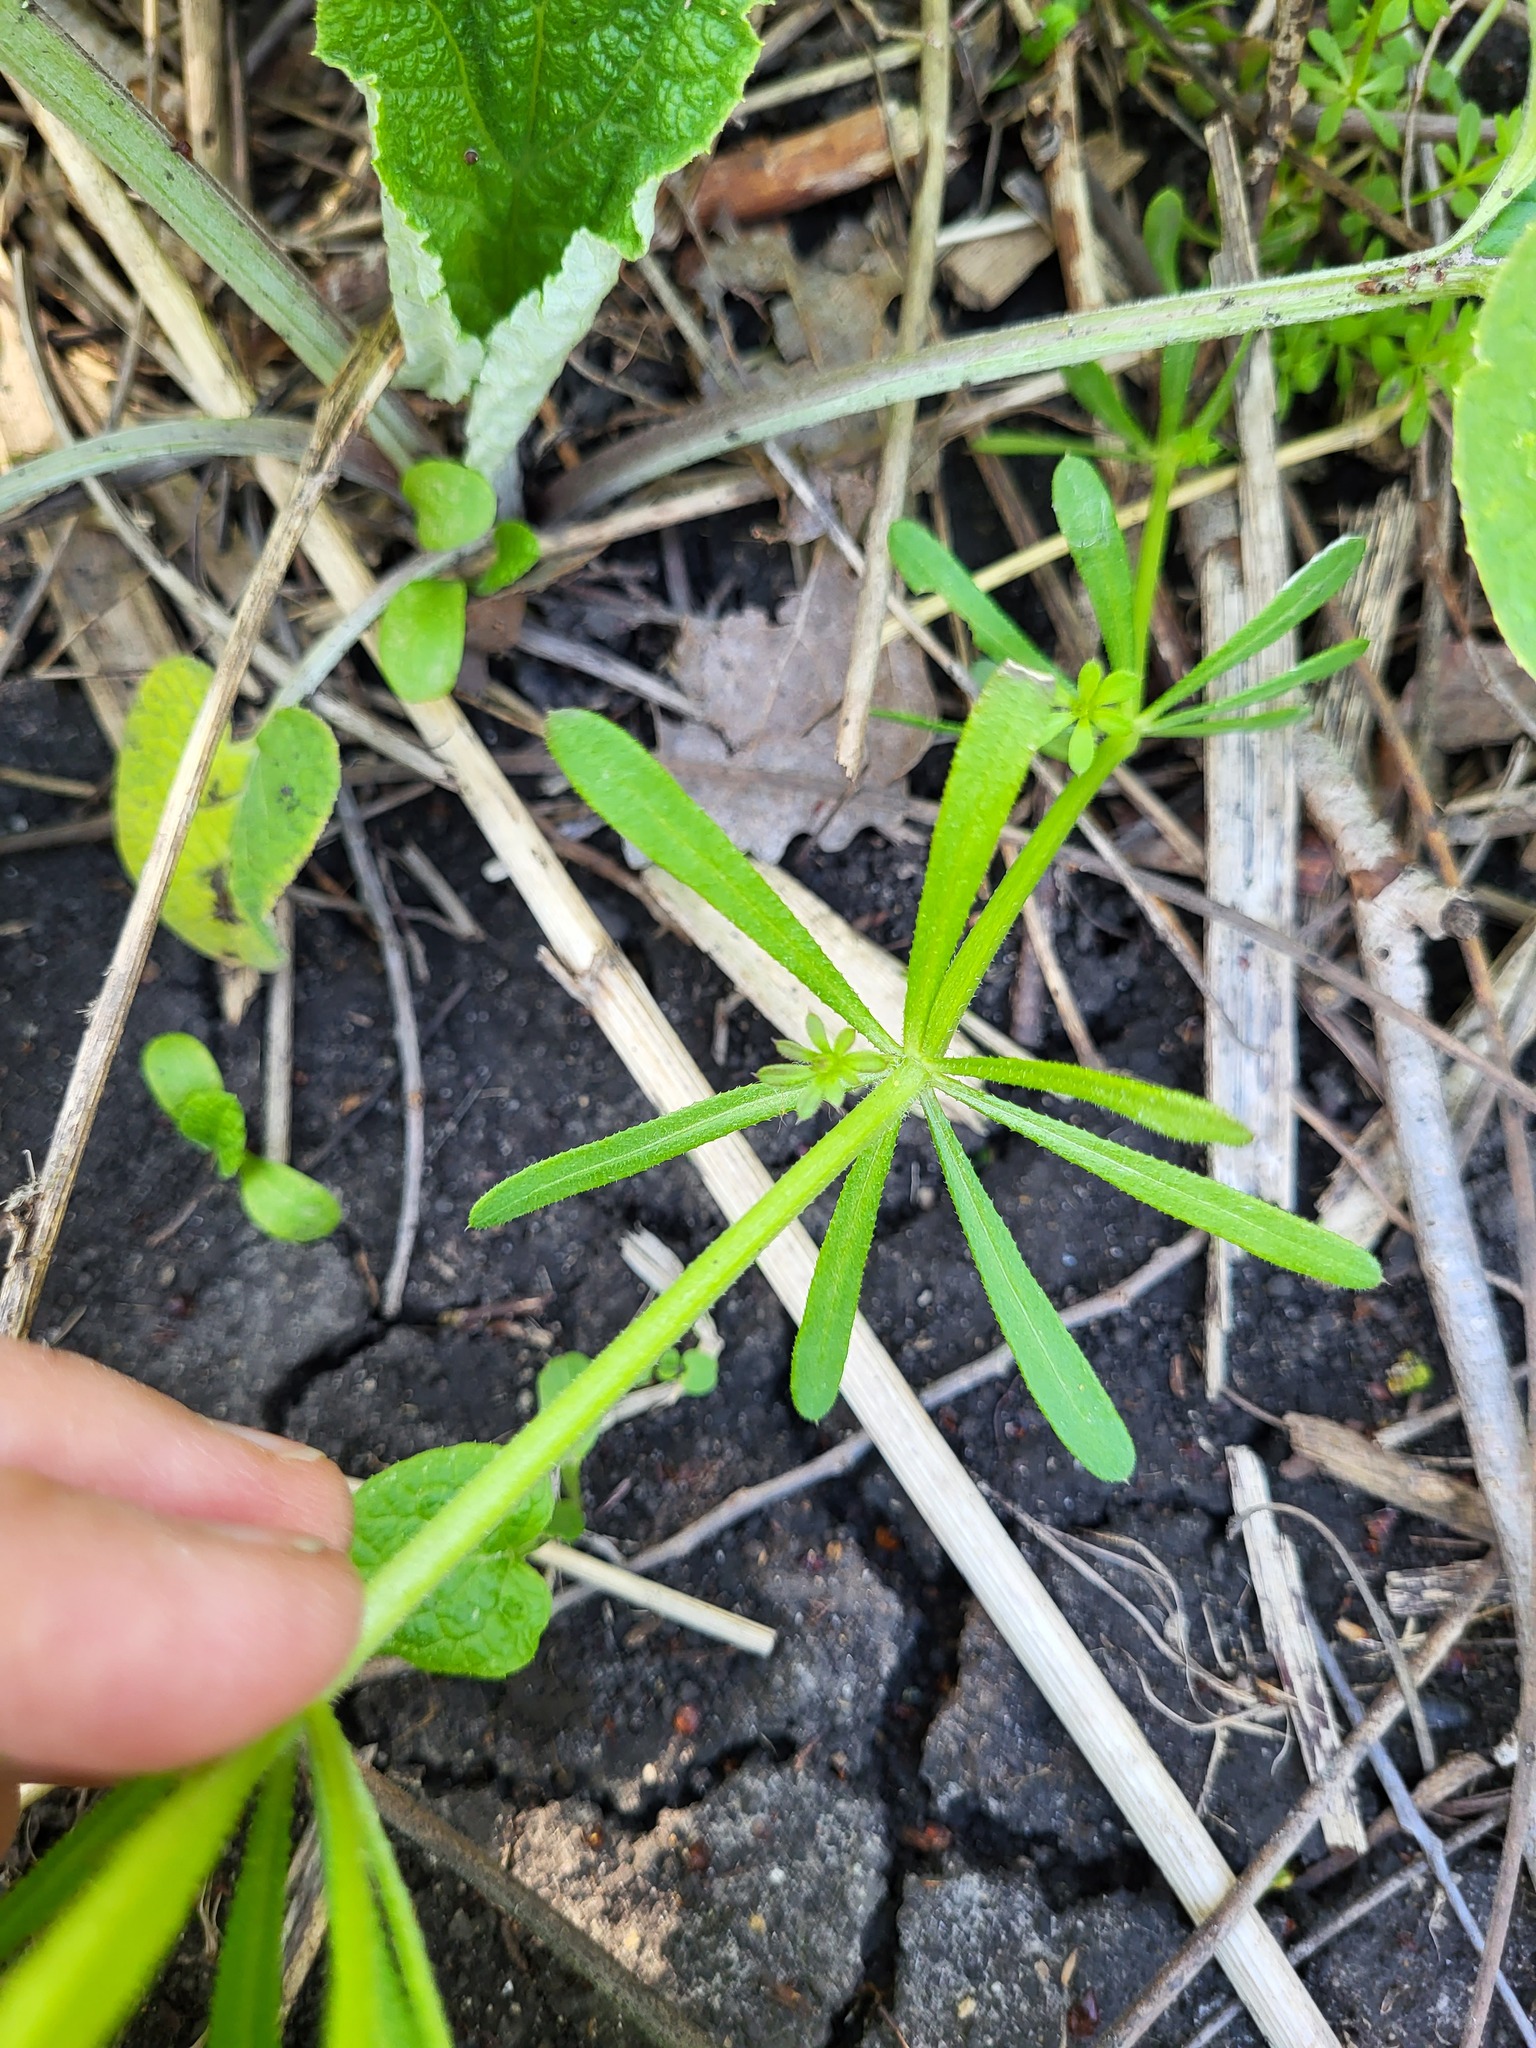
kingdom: Plantae
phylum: Tracheophyta
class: Magnoliopsida
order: Gentianales
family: Rubiaceae
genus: Galium
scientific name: Galium aparine
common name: Cleavers
